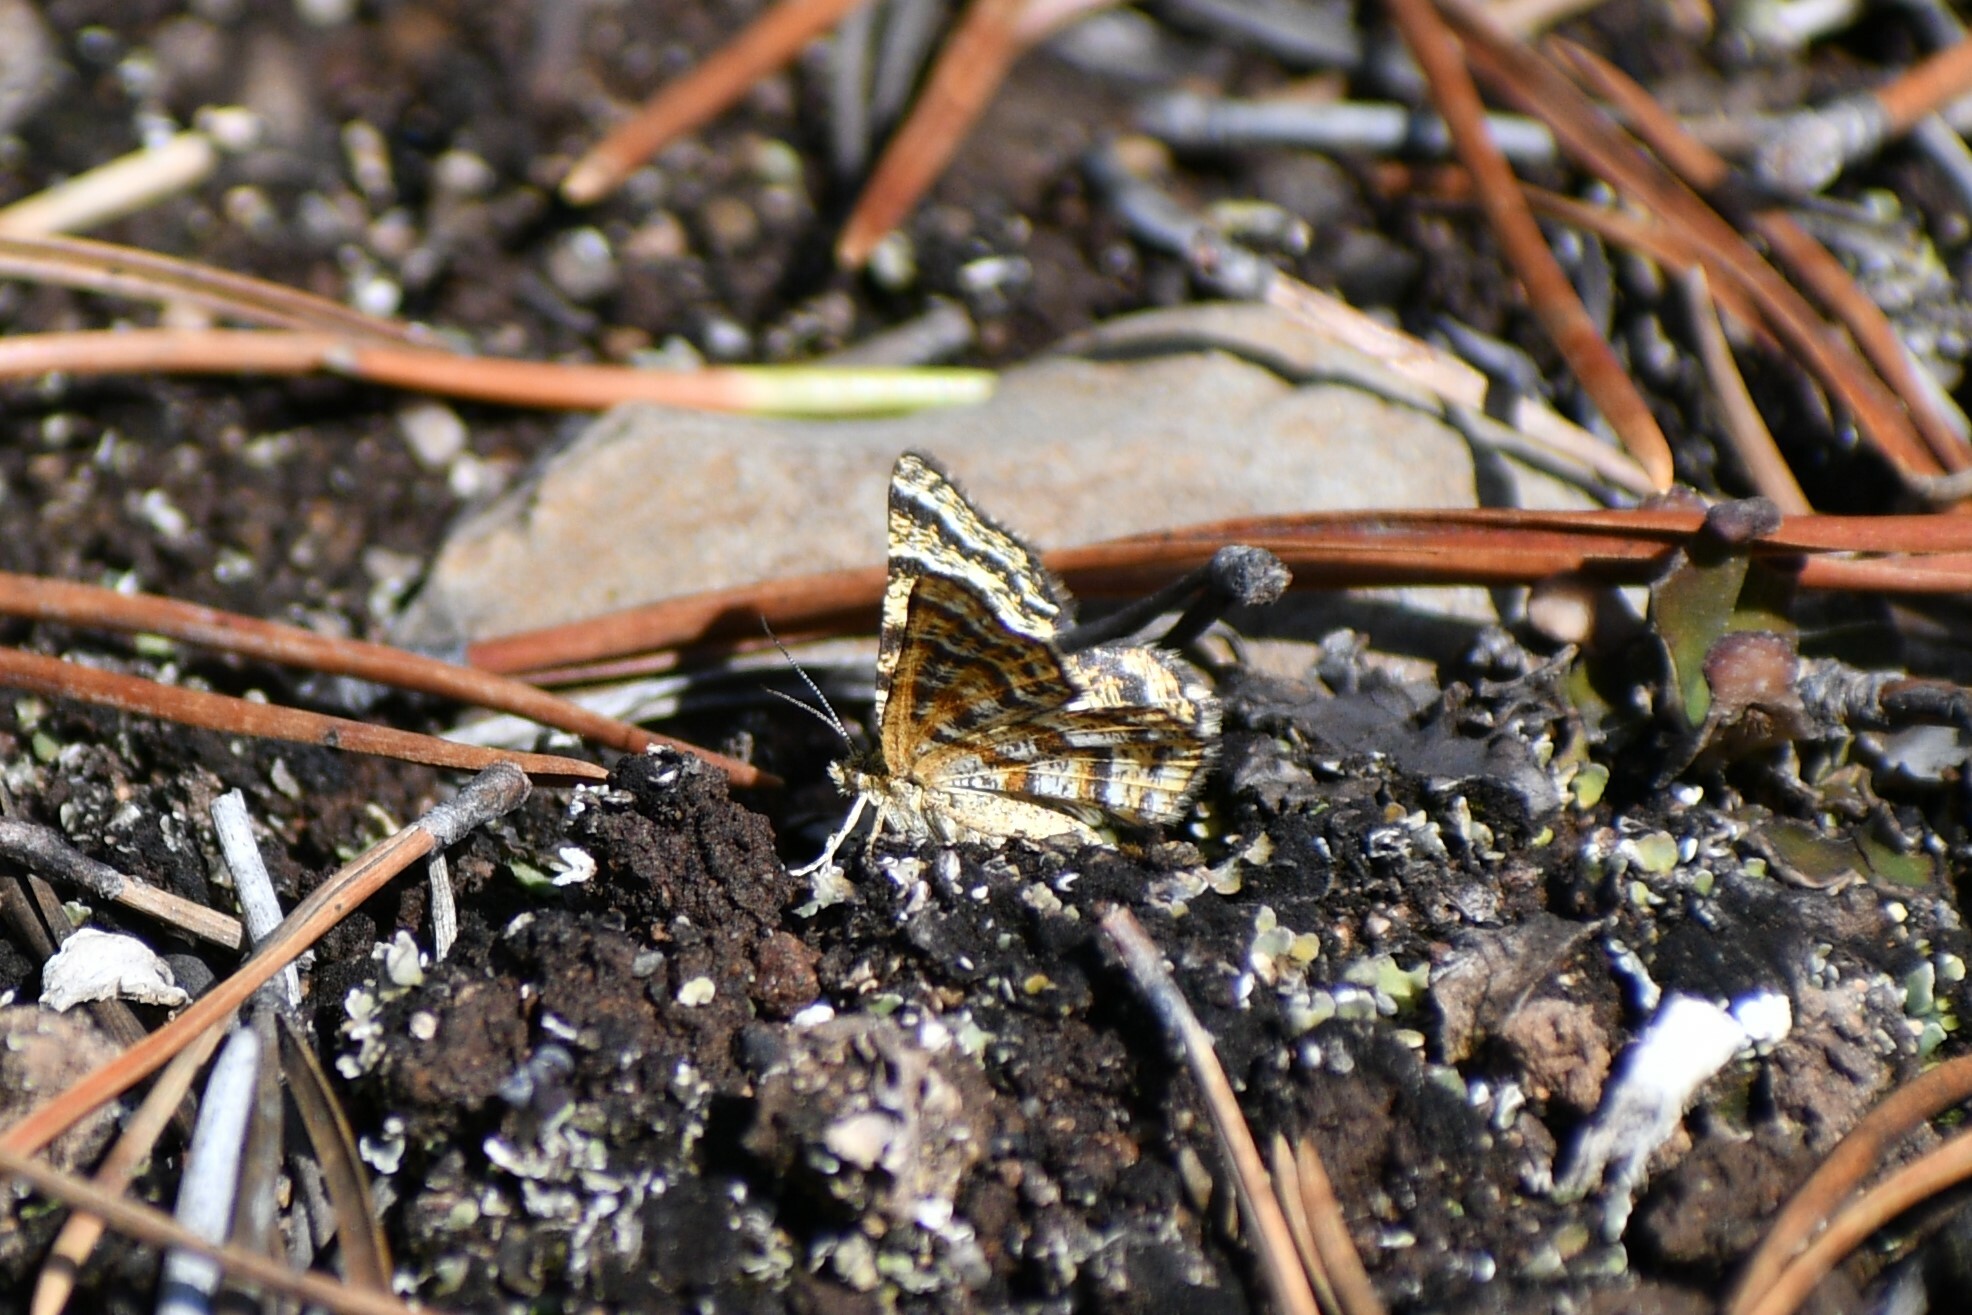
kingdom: Animalia
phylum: Arthropoda
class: Insecta
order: Lepidoptera
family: Geometridae
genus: Macaria
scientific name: Macaria truncataria
